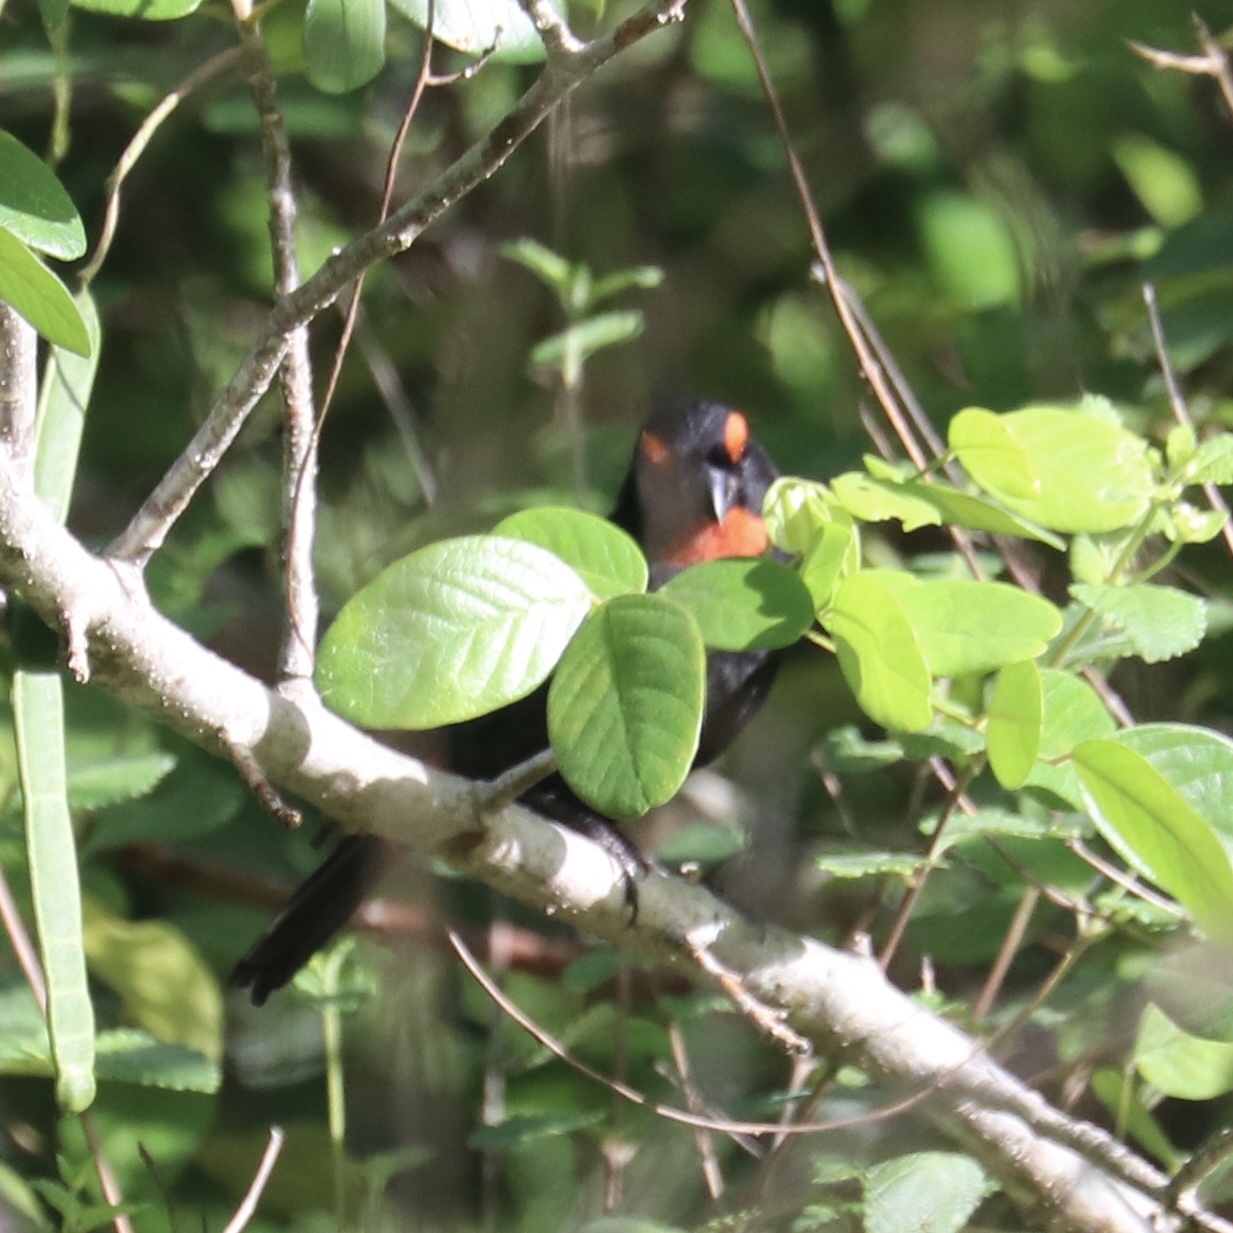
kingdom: Animalia
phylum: Chordata
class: Aves
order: Passeriformes
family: Thraupidae
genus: Melopyrrha
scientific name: Melopyrrha violacea
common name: Greater antillean bullfinch
